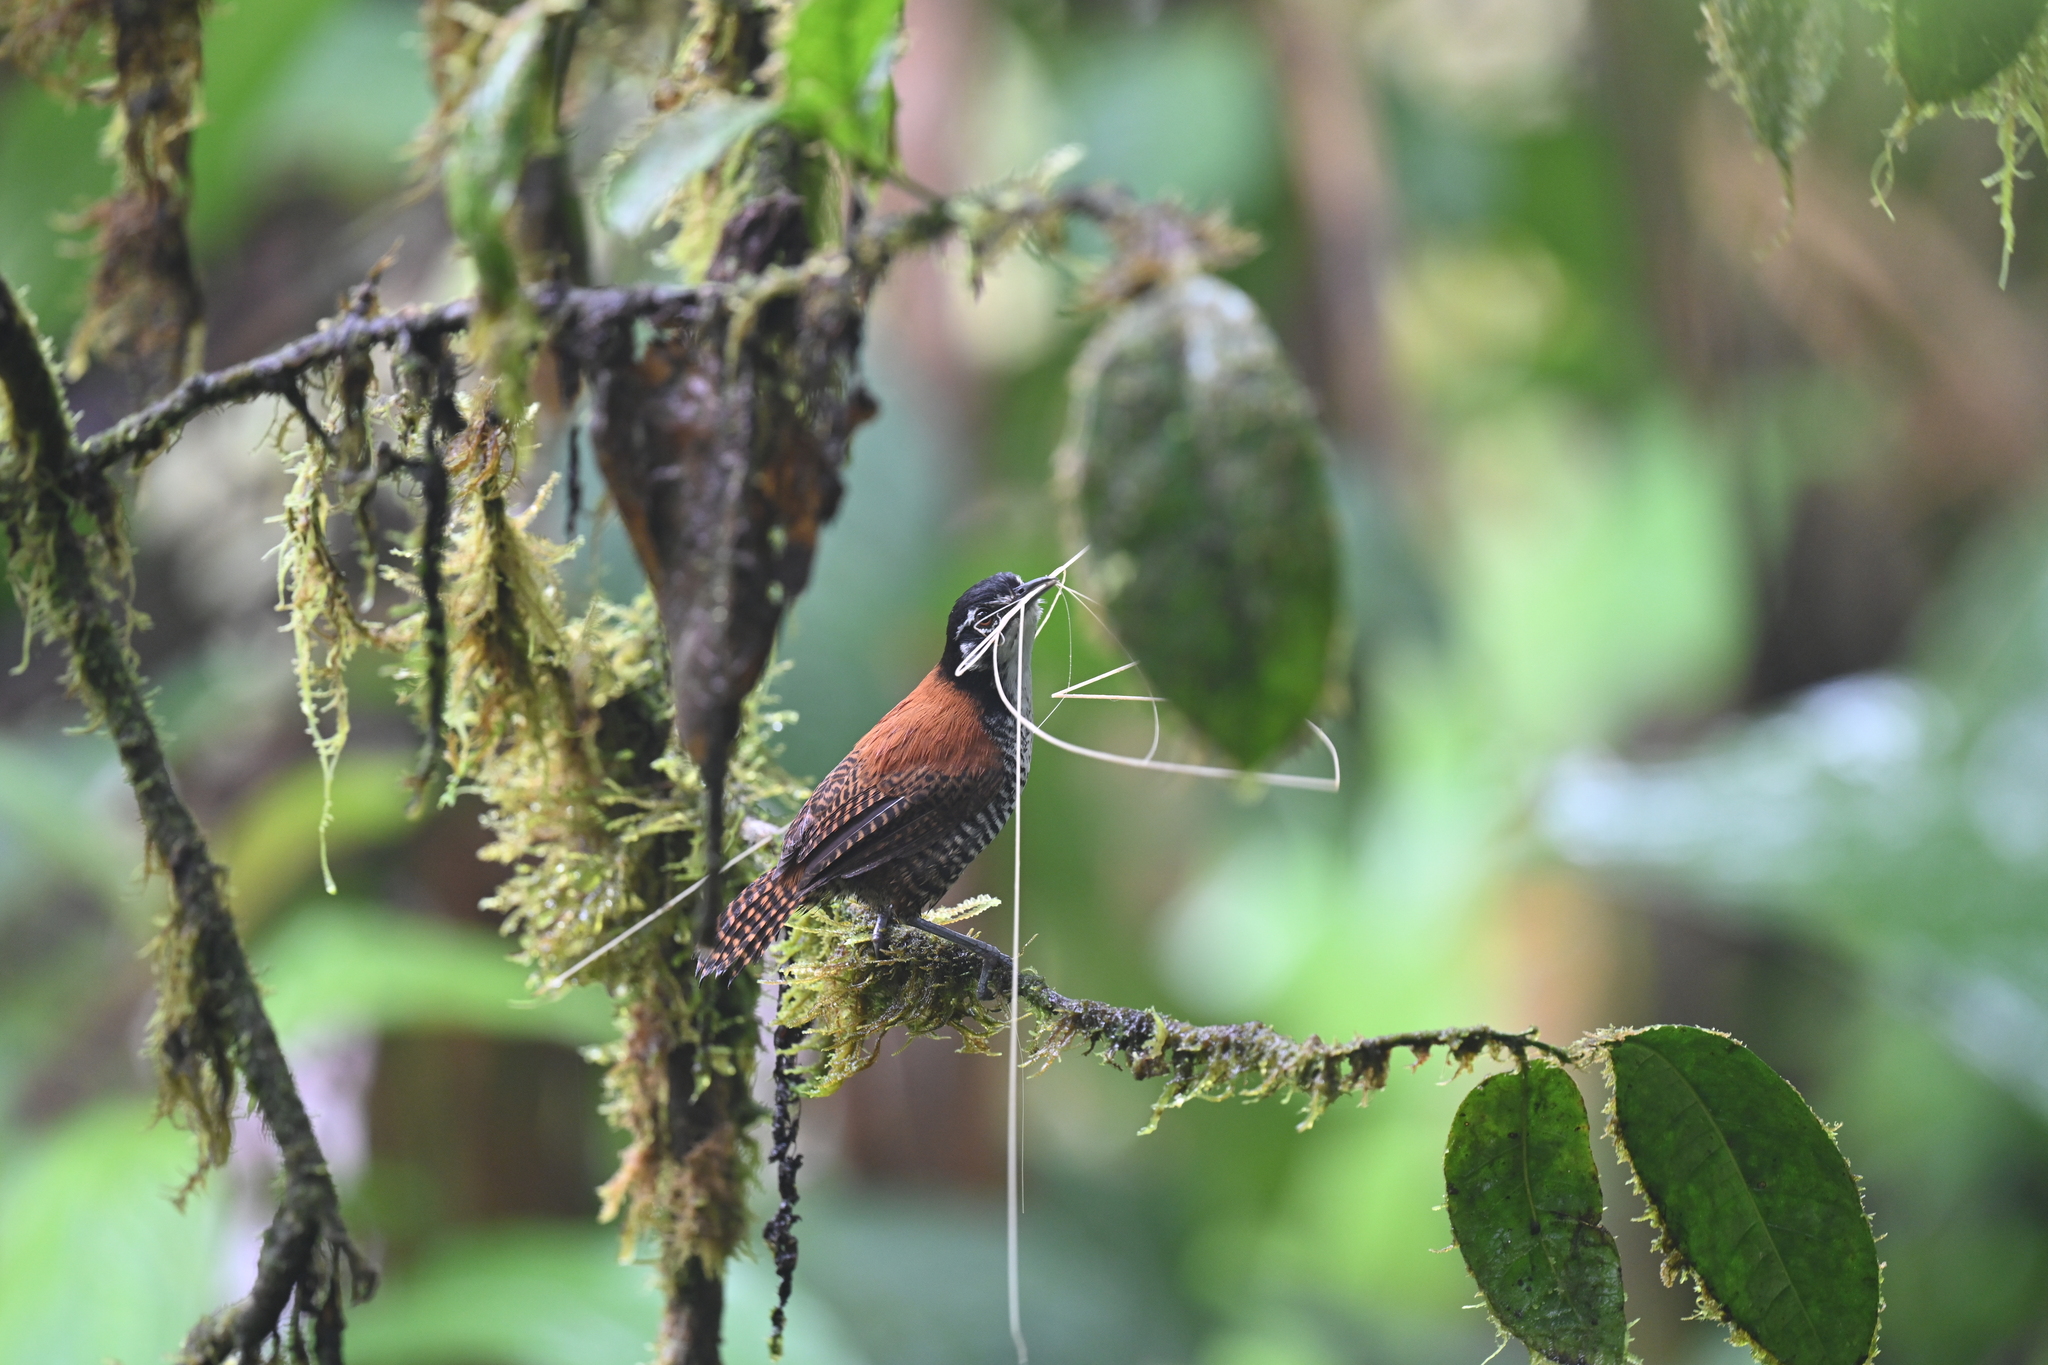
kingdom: Animalia
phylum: Chordata
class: Aves
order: Passeriformes
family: Troglodytidae
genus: Cantorchilus
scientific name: Cantorchilus nigricapillus
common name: Bay wren
